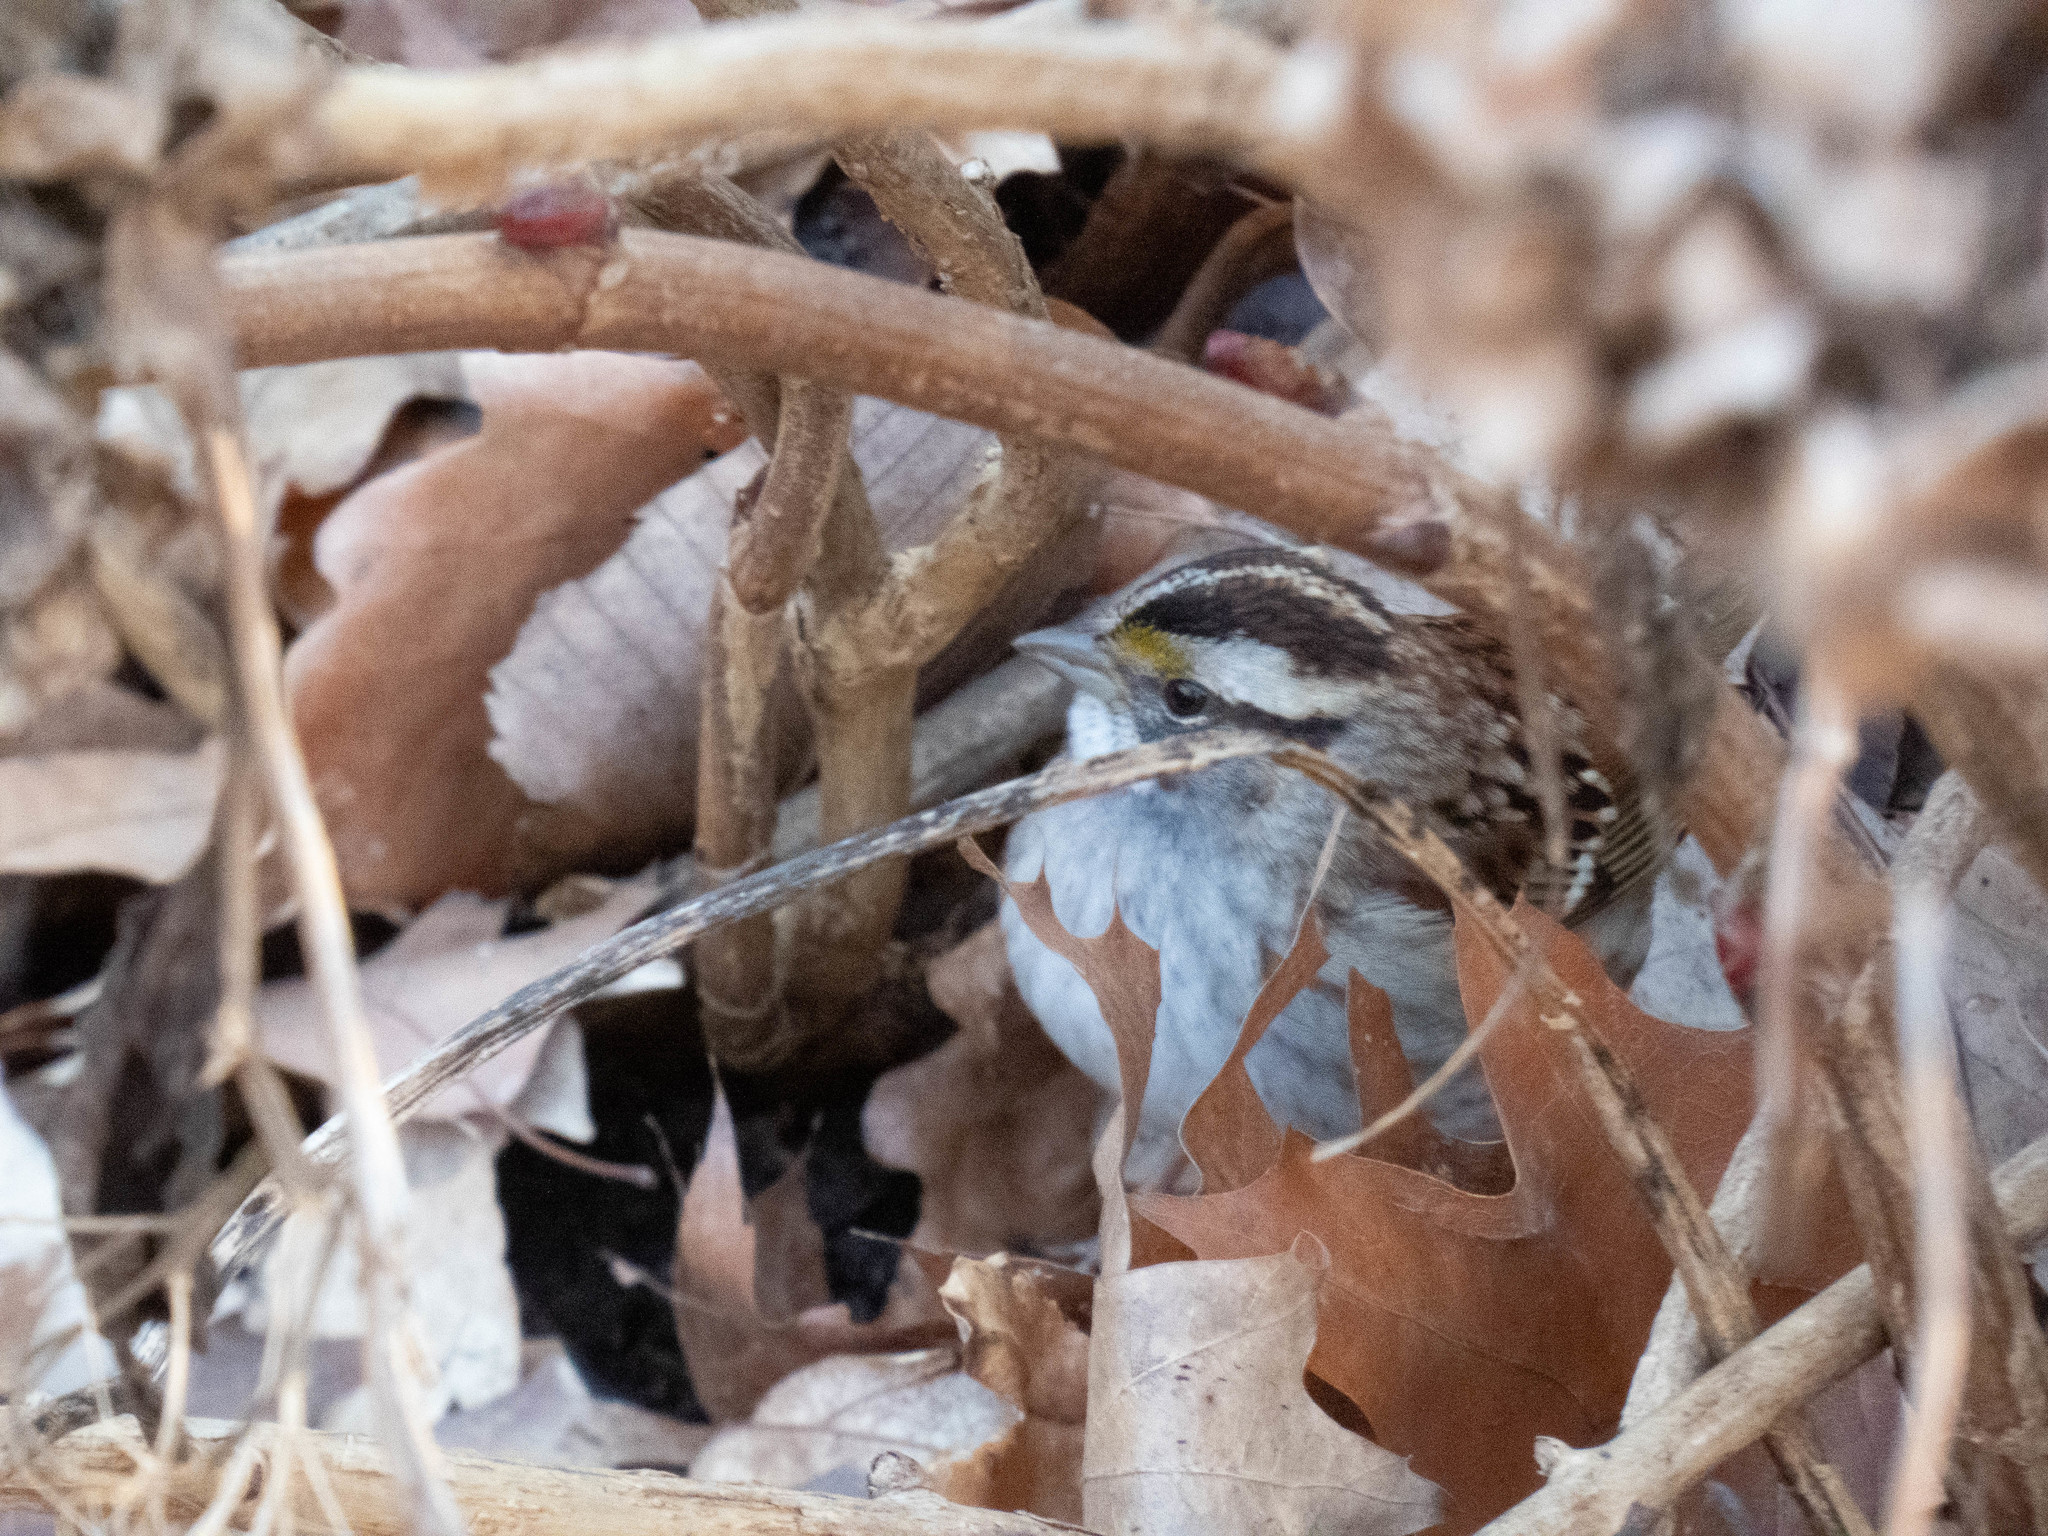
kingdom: Animalia
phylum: Chordata
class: Aves
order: Passeriformes
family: Passerellidae
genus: Zonotrichia
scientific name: Zonotrichia albicollis
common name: White-throated sparrow
